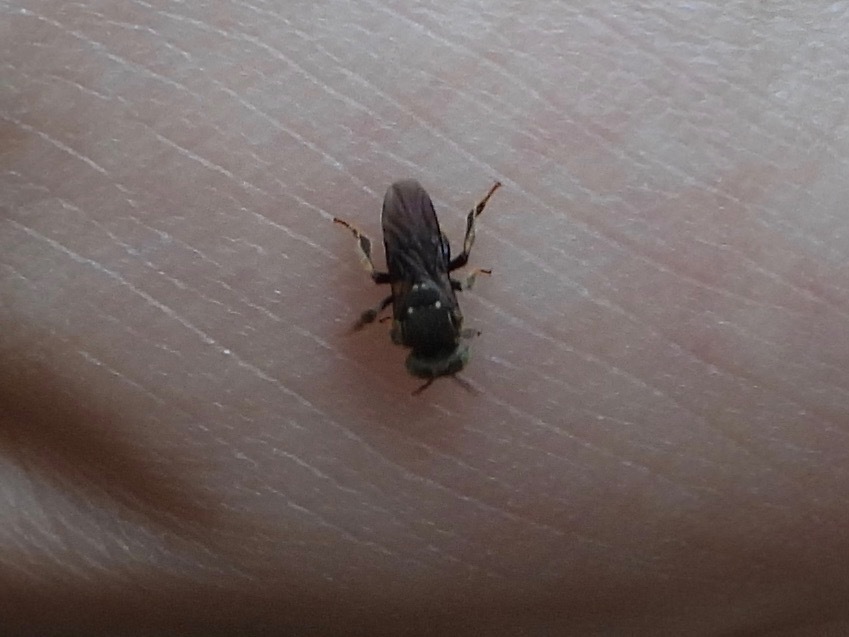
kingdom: Animalia
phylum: Arthropoda
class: Insecta
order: Hymenoptera
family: Apidae
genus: Nannotrigona
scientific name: Nannotrigona perilampoides
